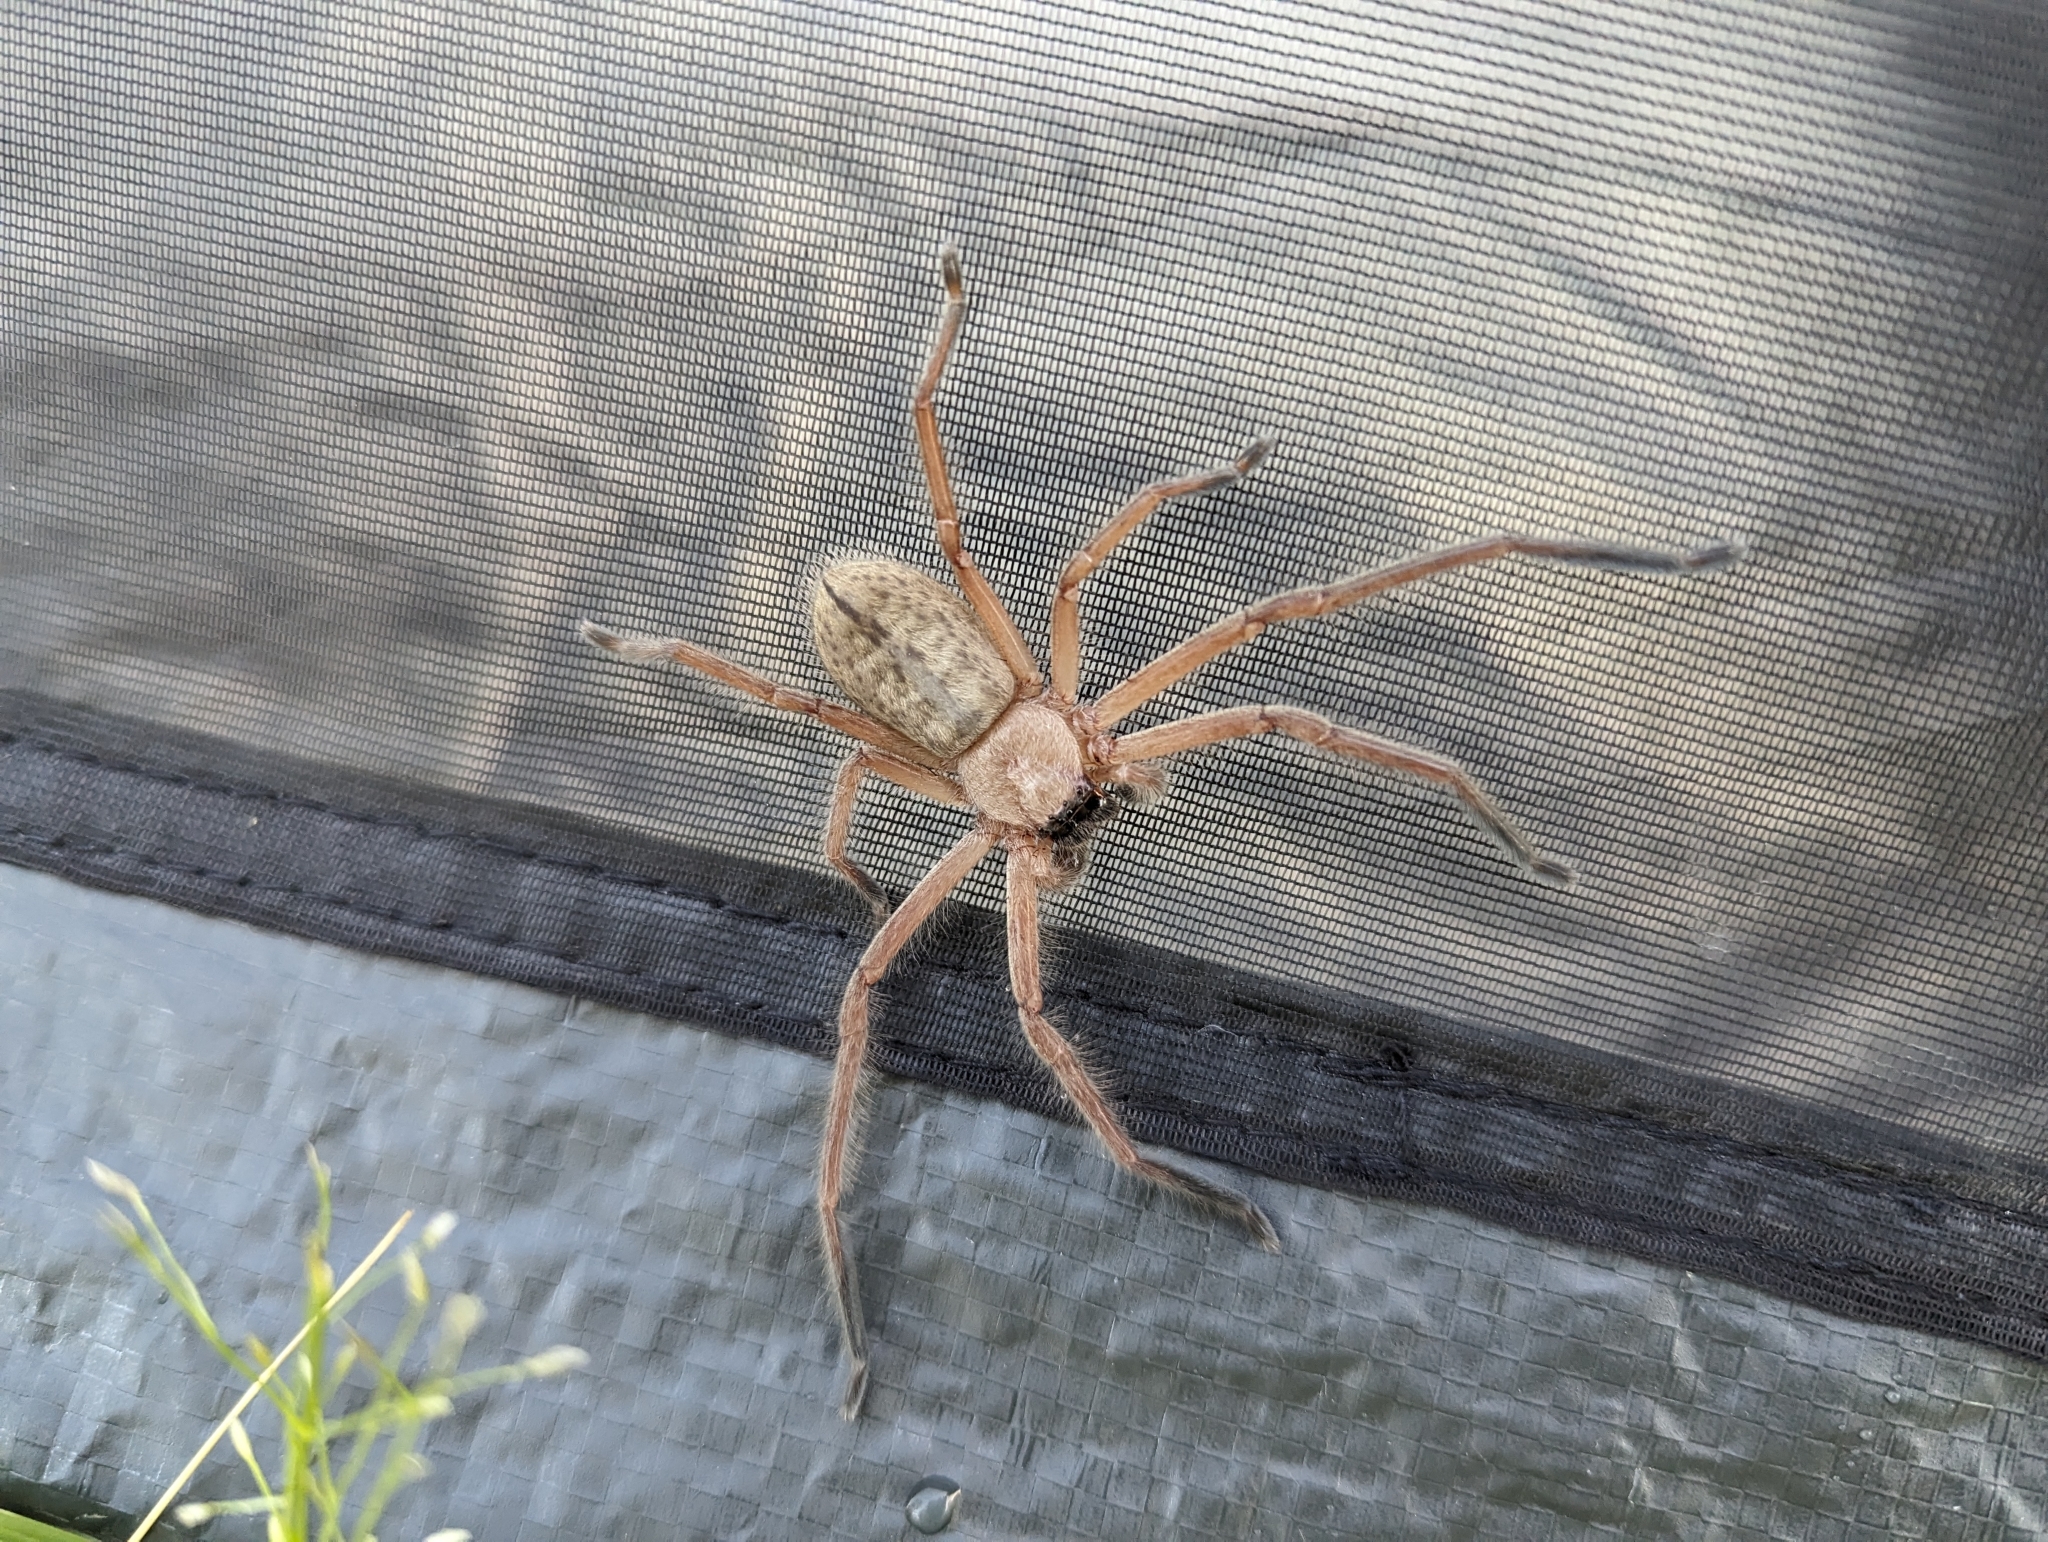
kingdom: Animalia
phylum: Arthropoda
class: Arachnida
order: Araneae
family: Sparassidae
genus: Delena
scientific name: Delena cancerides
